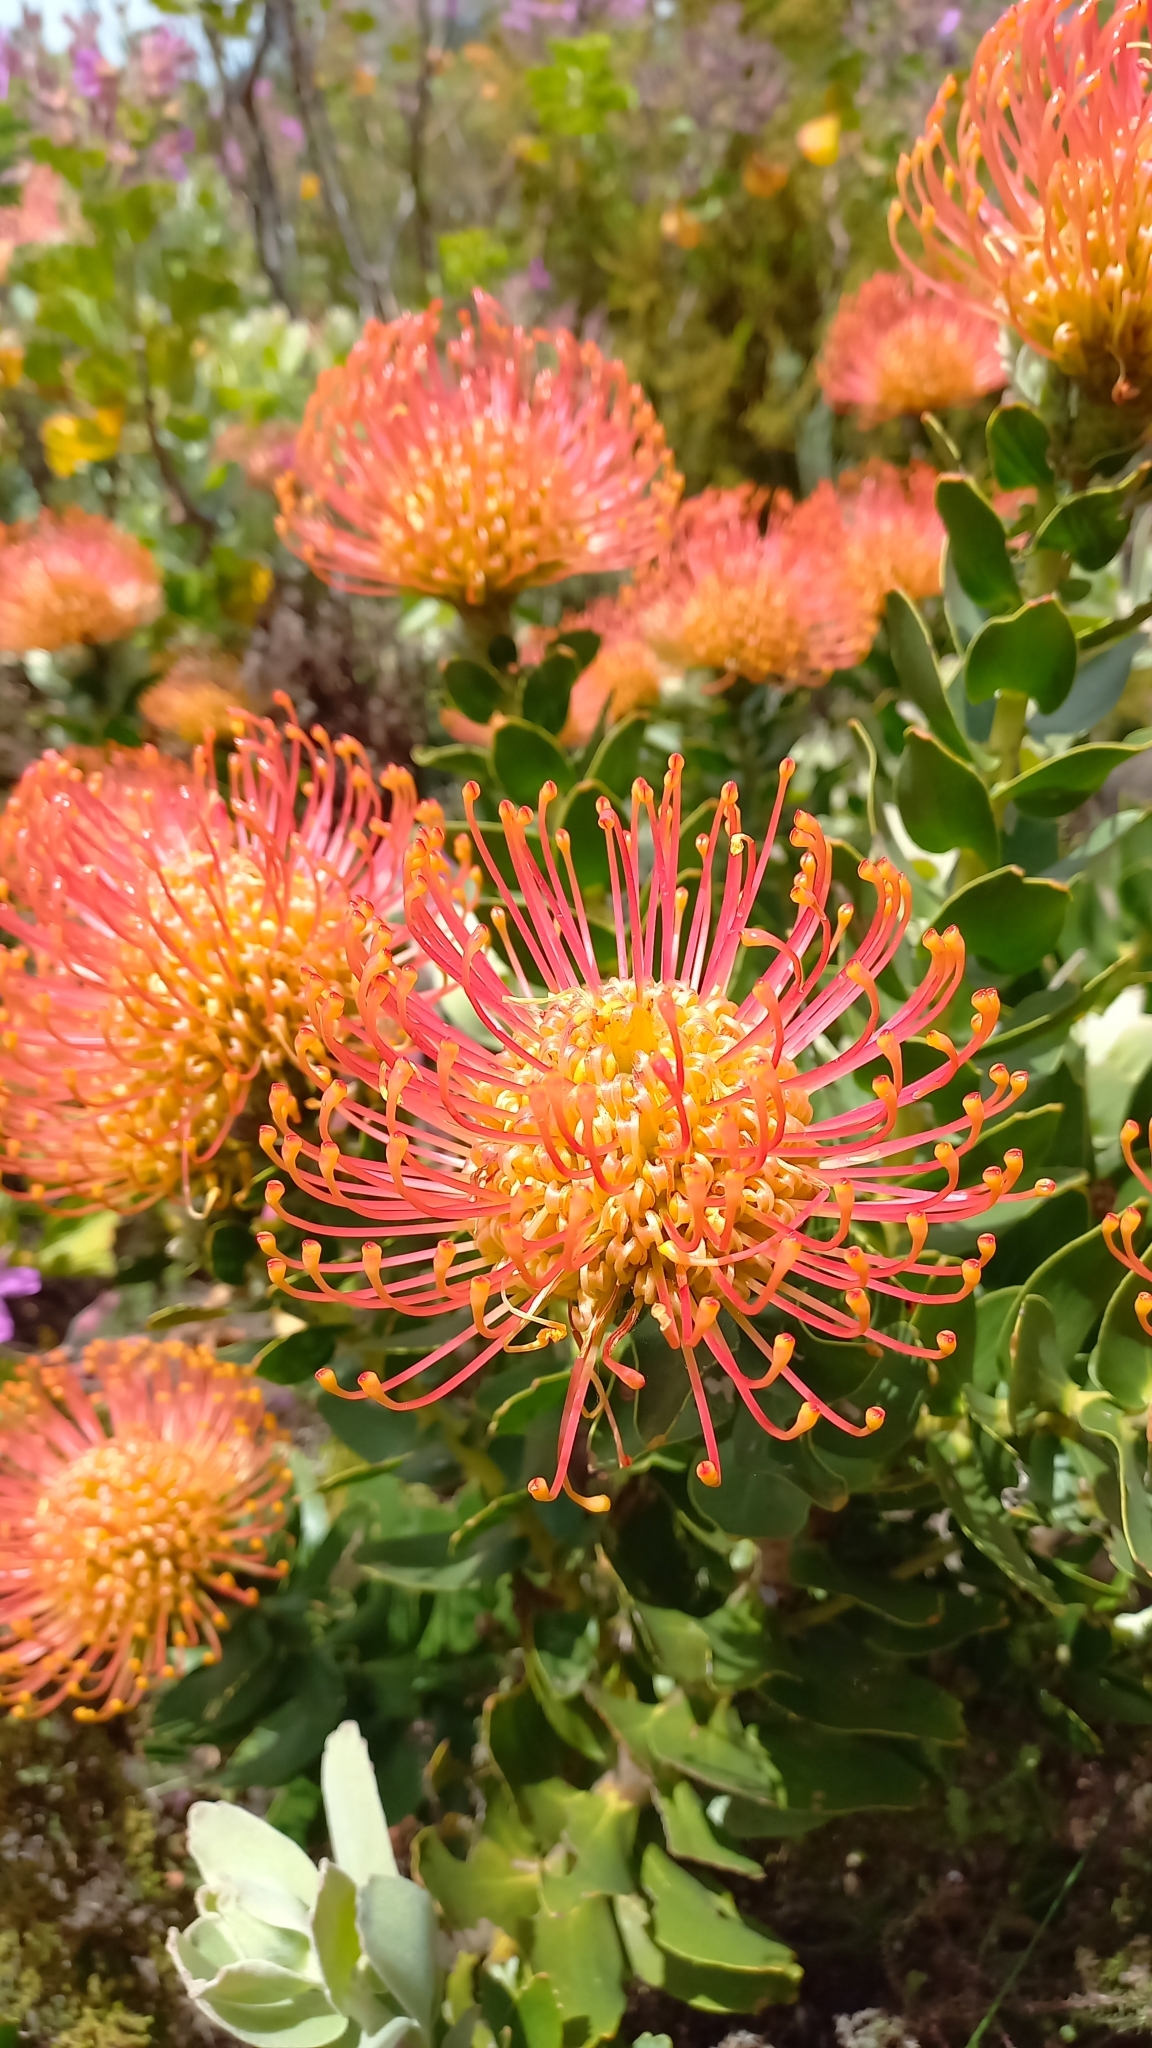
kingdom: Plantae
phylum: Tracheophyta
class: Magnoliopsida
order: Proteales
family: Proteaceae
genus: Leucospermum
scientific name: Leucospermum cordifolium
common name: Red pincushion-protea
